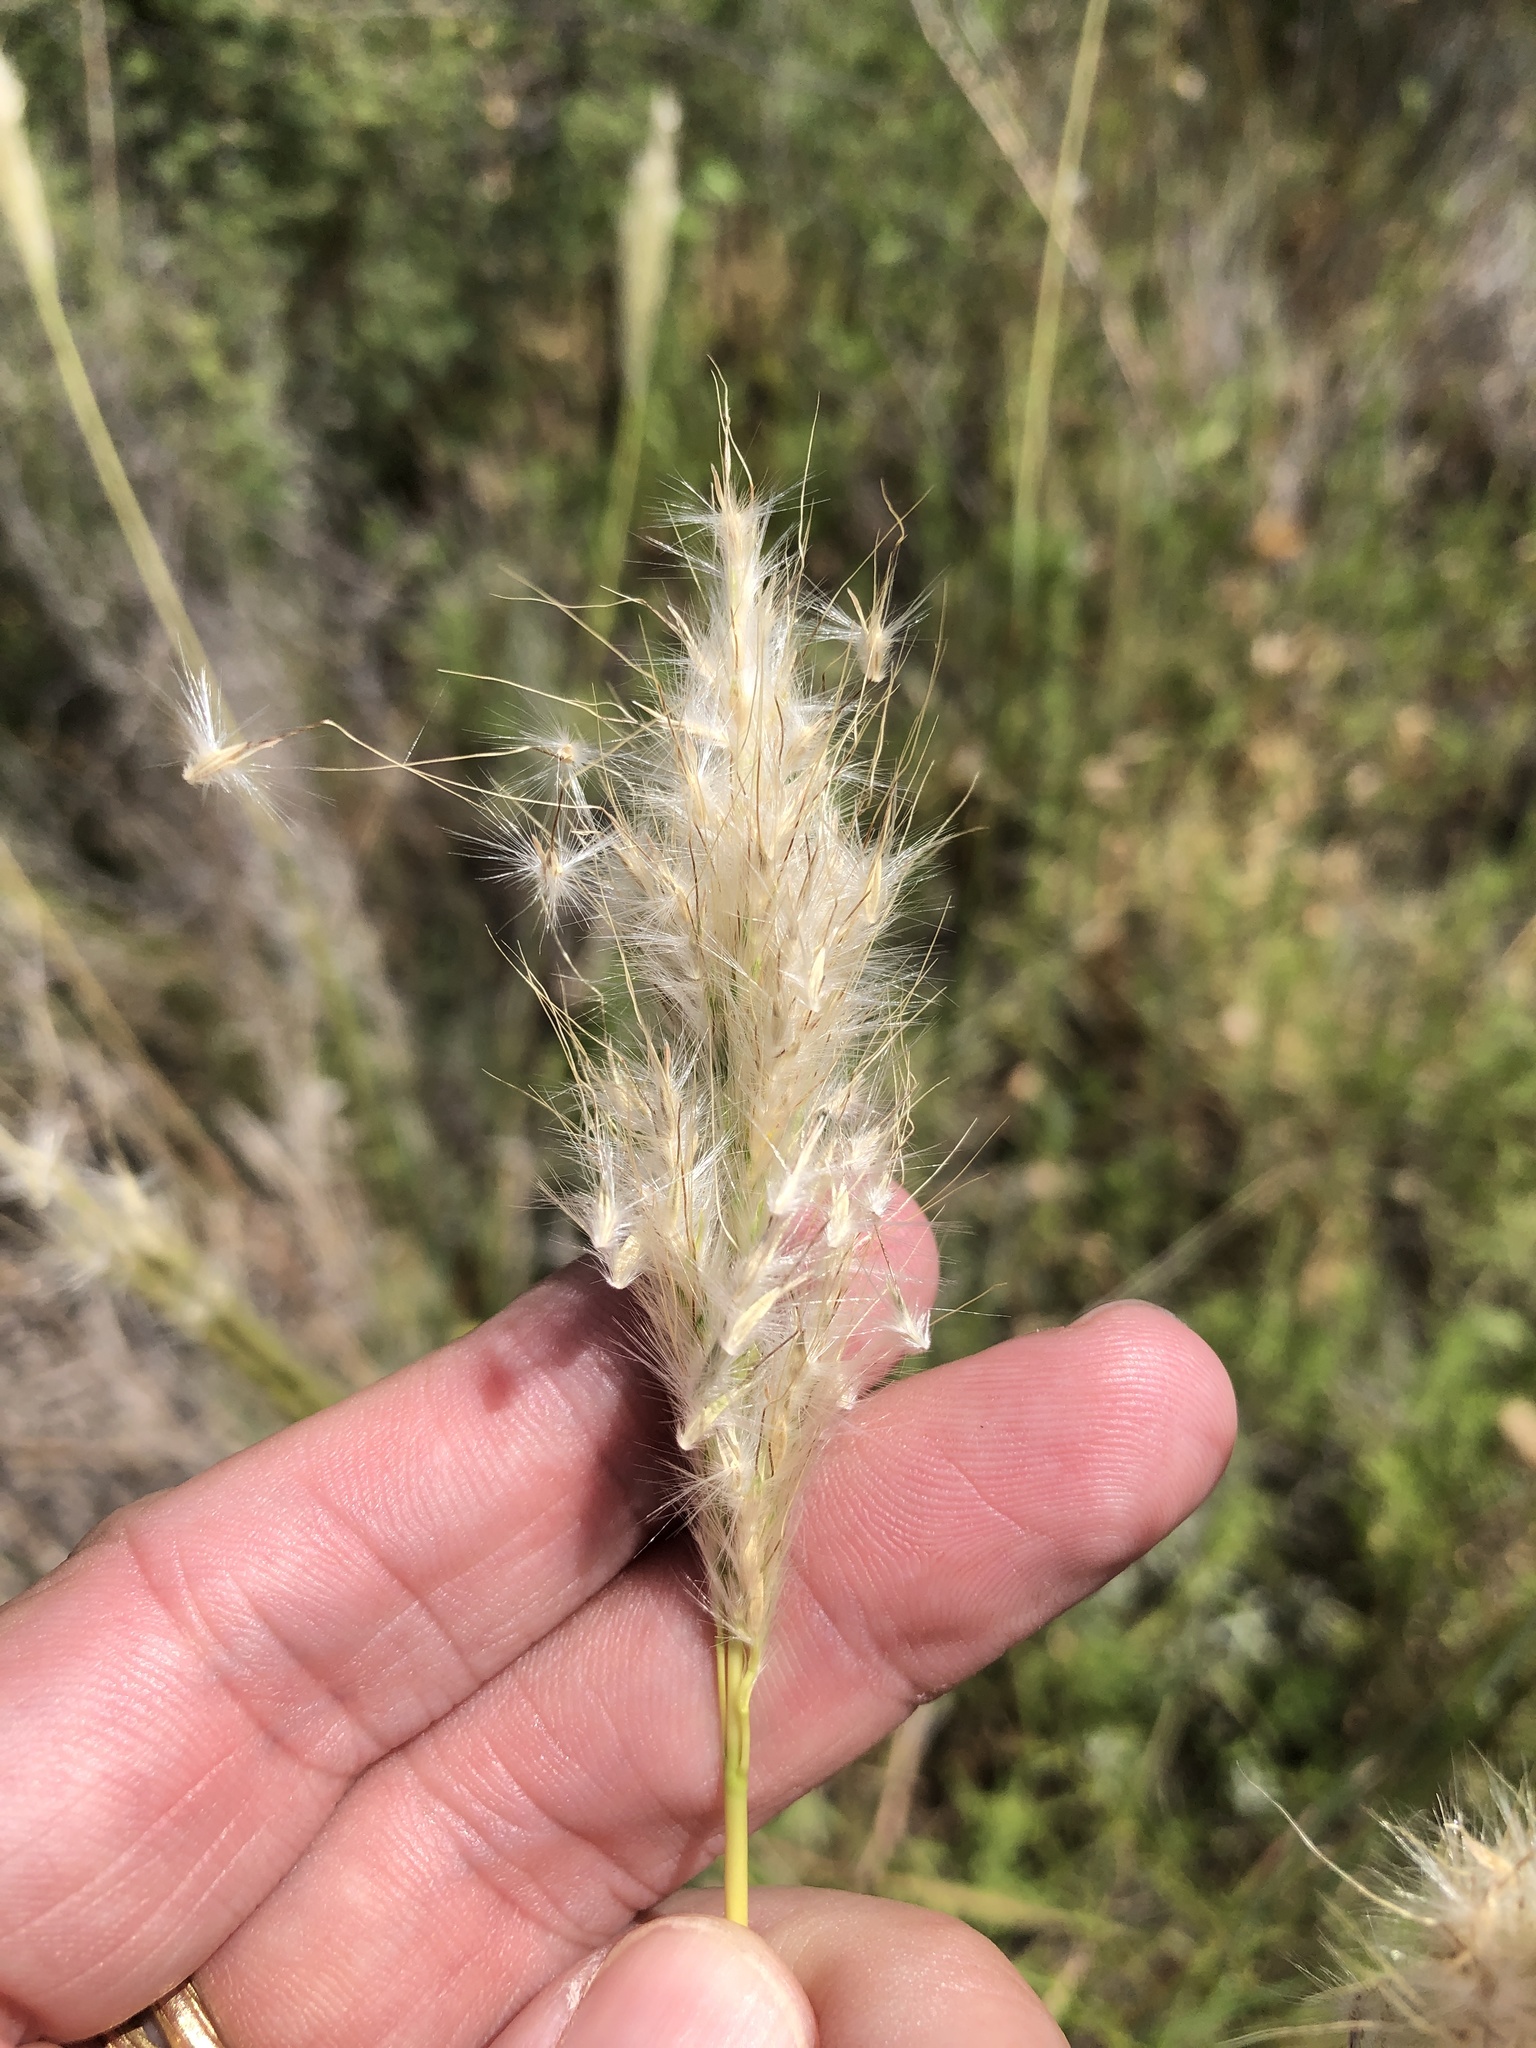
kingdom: Plantae
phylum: Tracheophyta
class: Liliopsida
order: Poales
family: Poaceae
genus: Bothriochloa
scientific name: Bothriochloa torreyana
